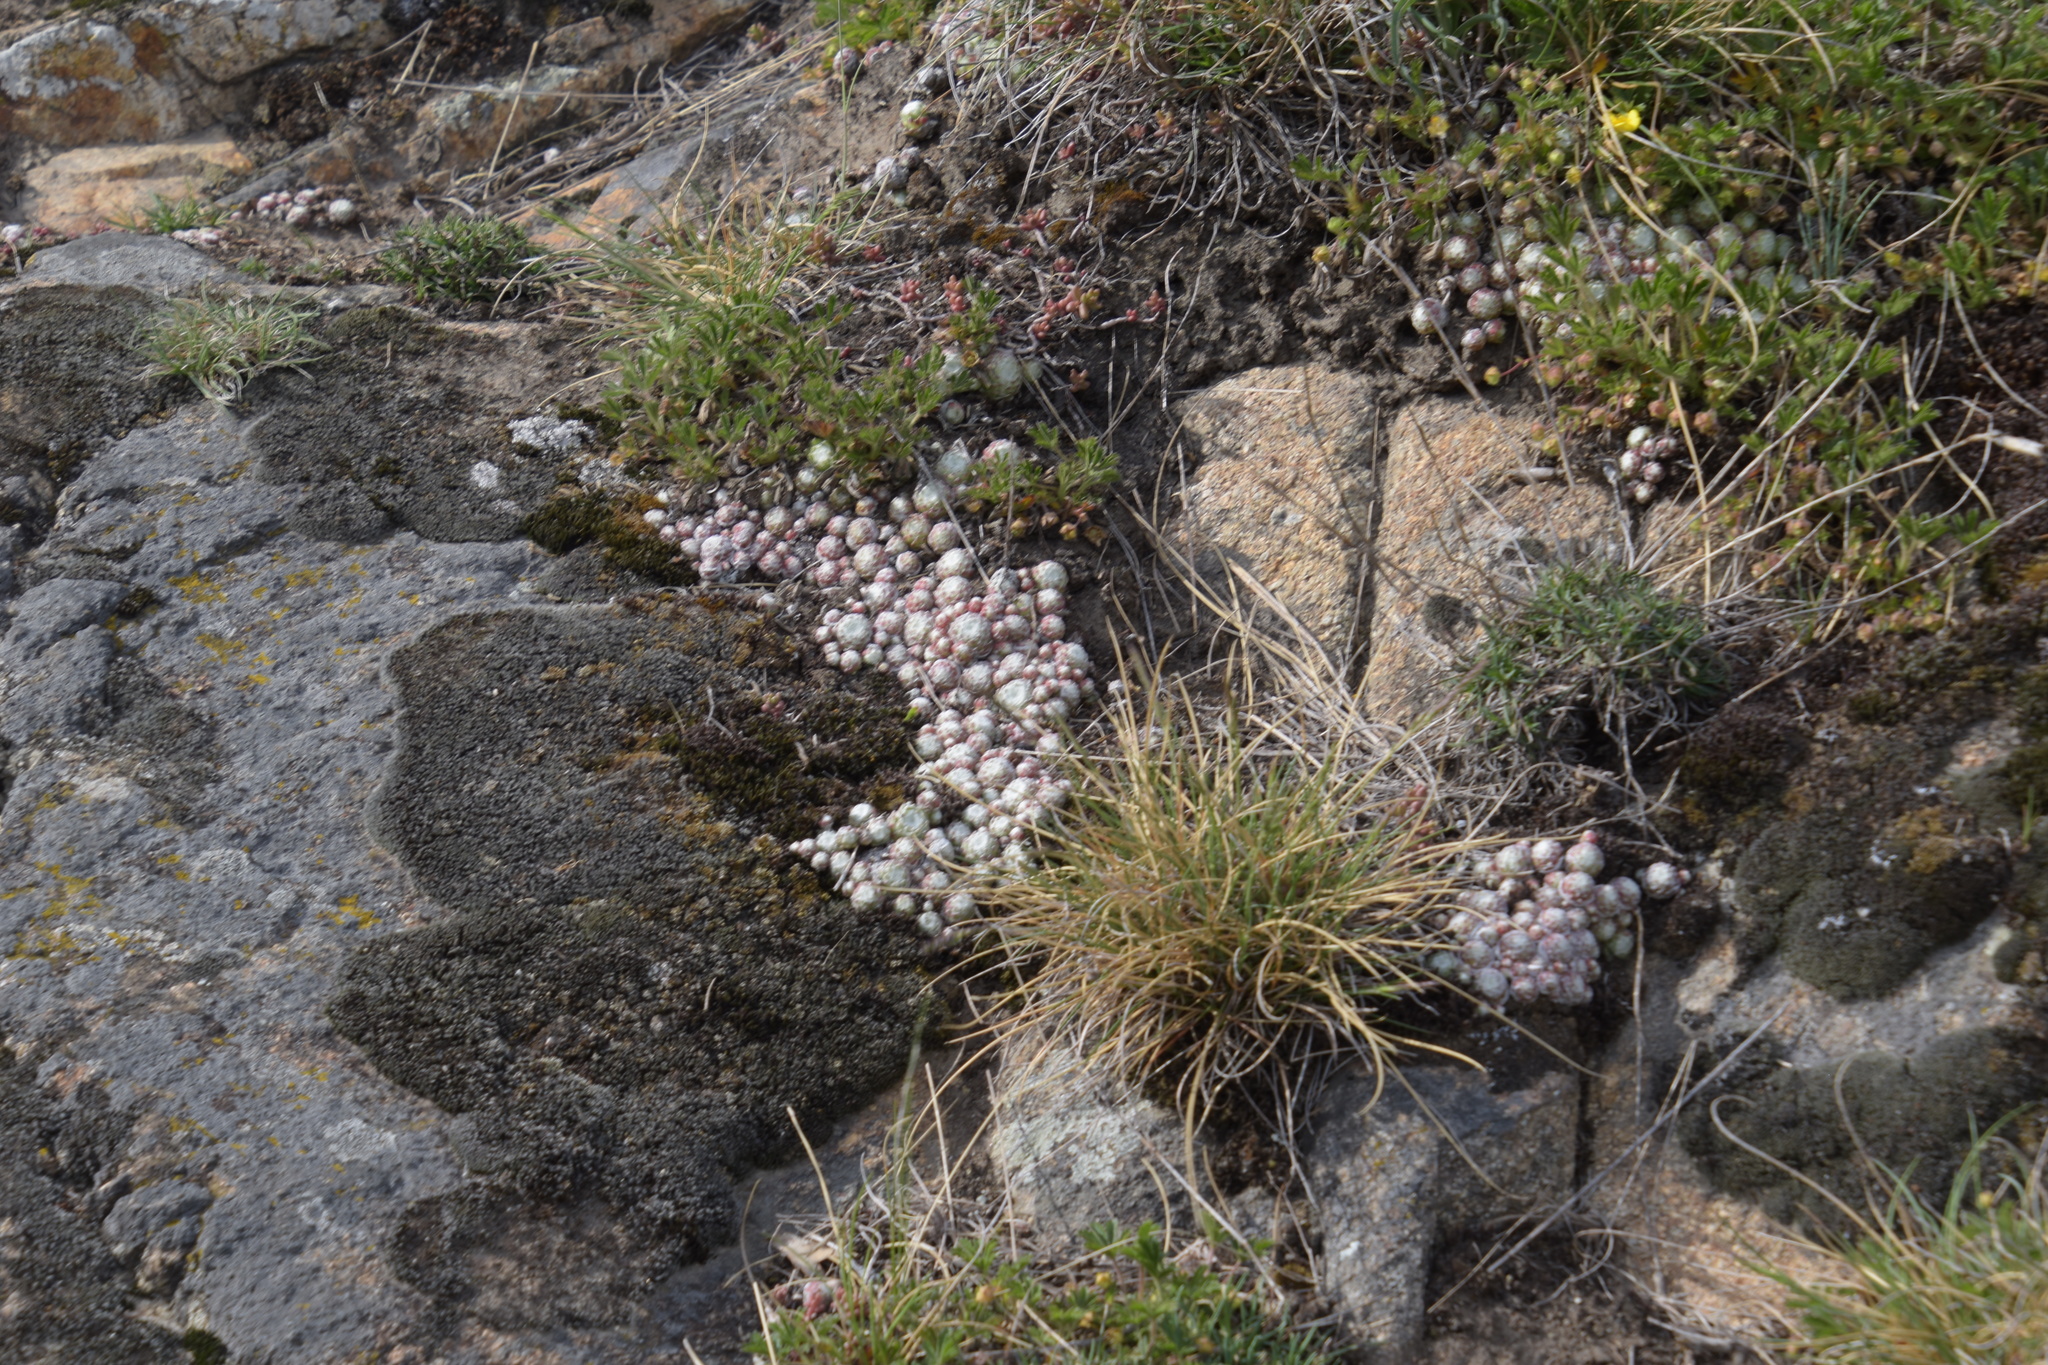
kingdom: Plantae
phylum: Tracheophyta
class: Magnoliopsida
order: Saxifragales
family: Crassulaceae
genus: Sempervivum
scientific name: Sempervivum arachnoideum
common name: Cobweb house-leek
